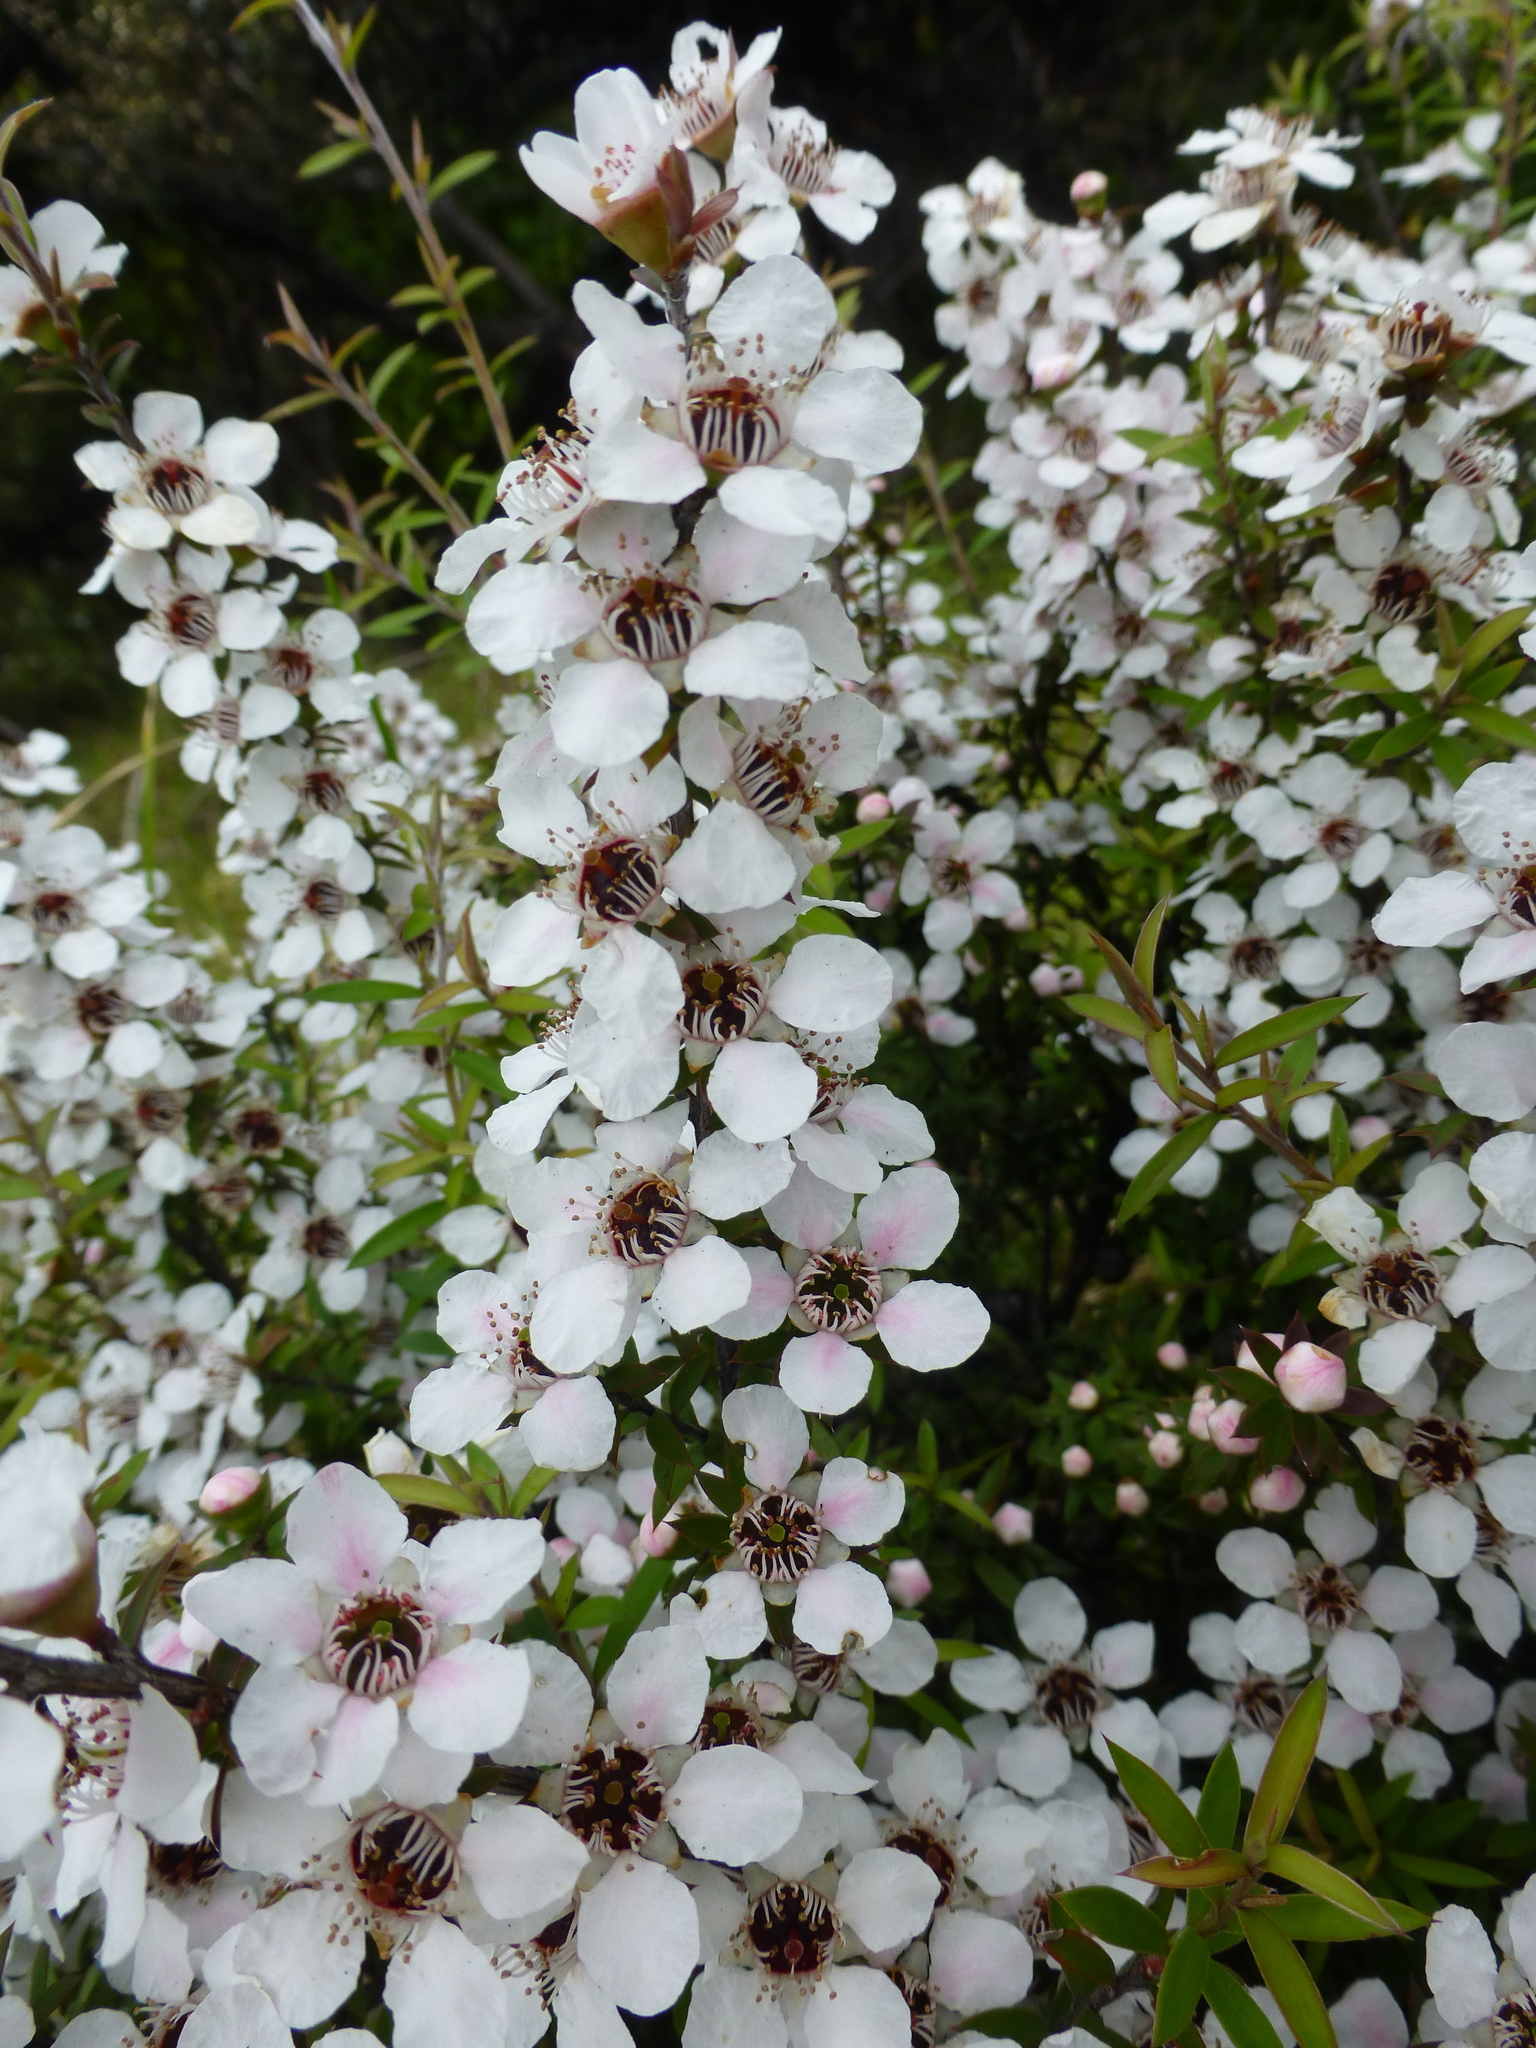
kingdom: Plantae
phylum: Tracheophyta
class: Magnoliopsida
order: Myrtales
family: Myrtaceae
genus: Leptospermum
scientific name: Leptospermum scoparium
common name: Broom tea-tree
